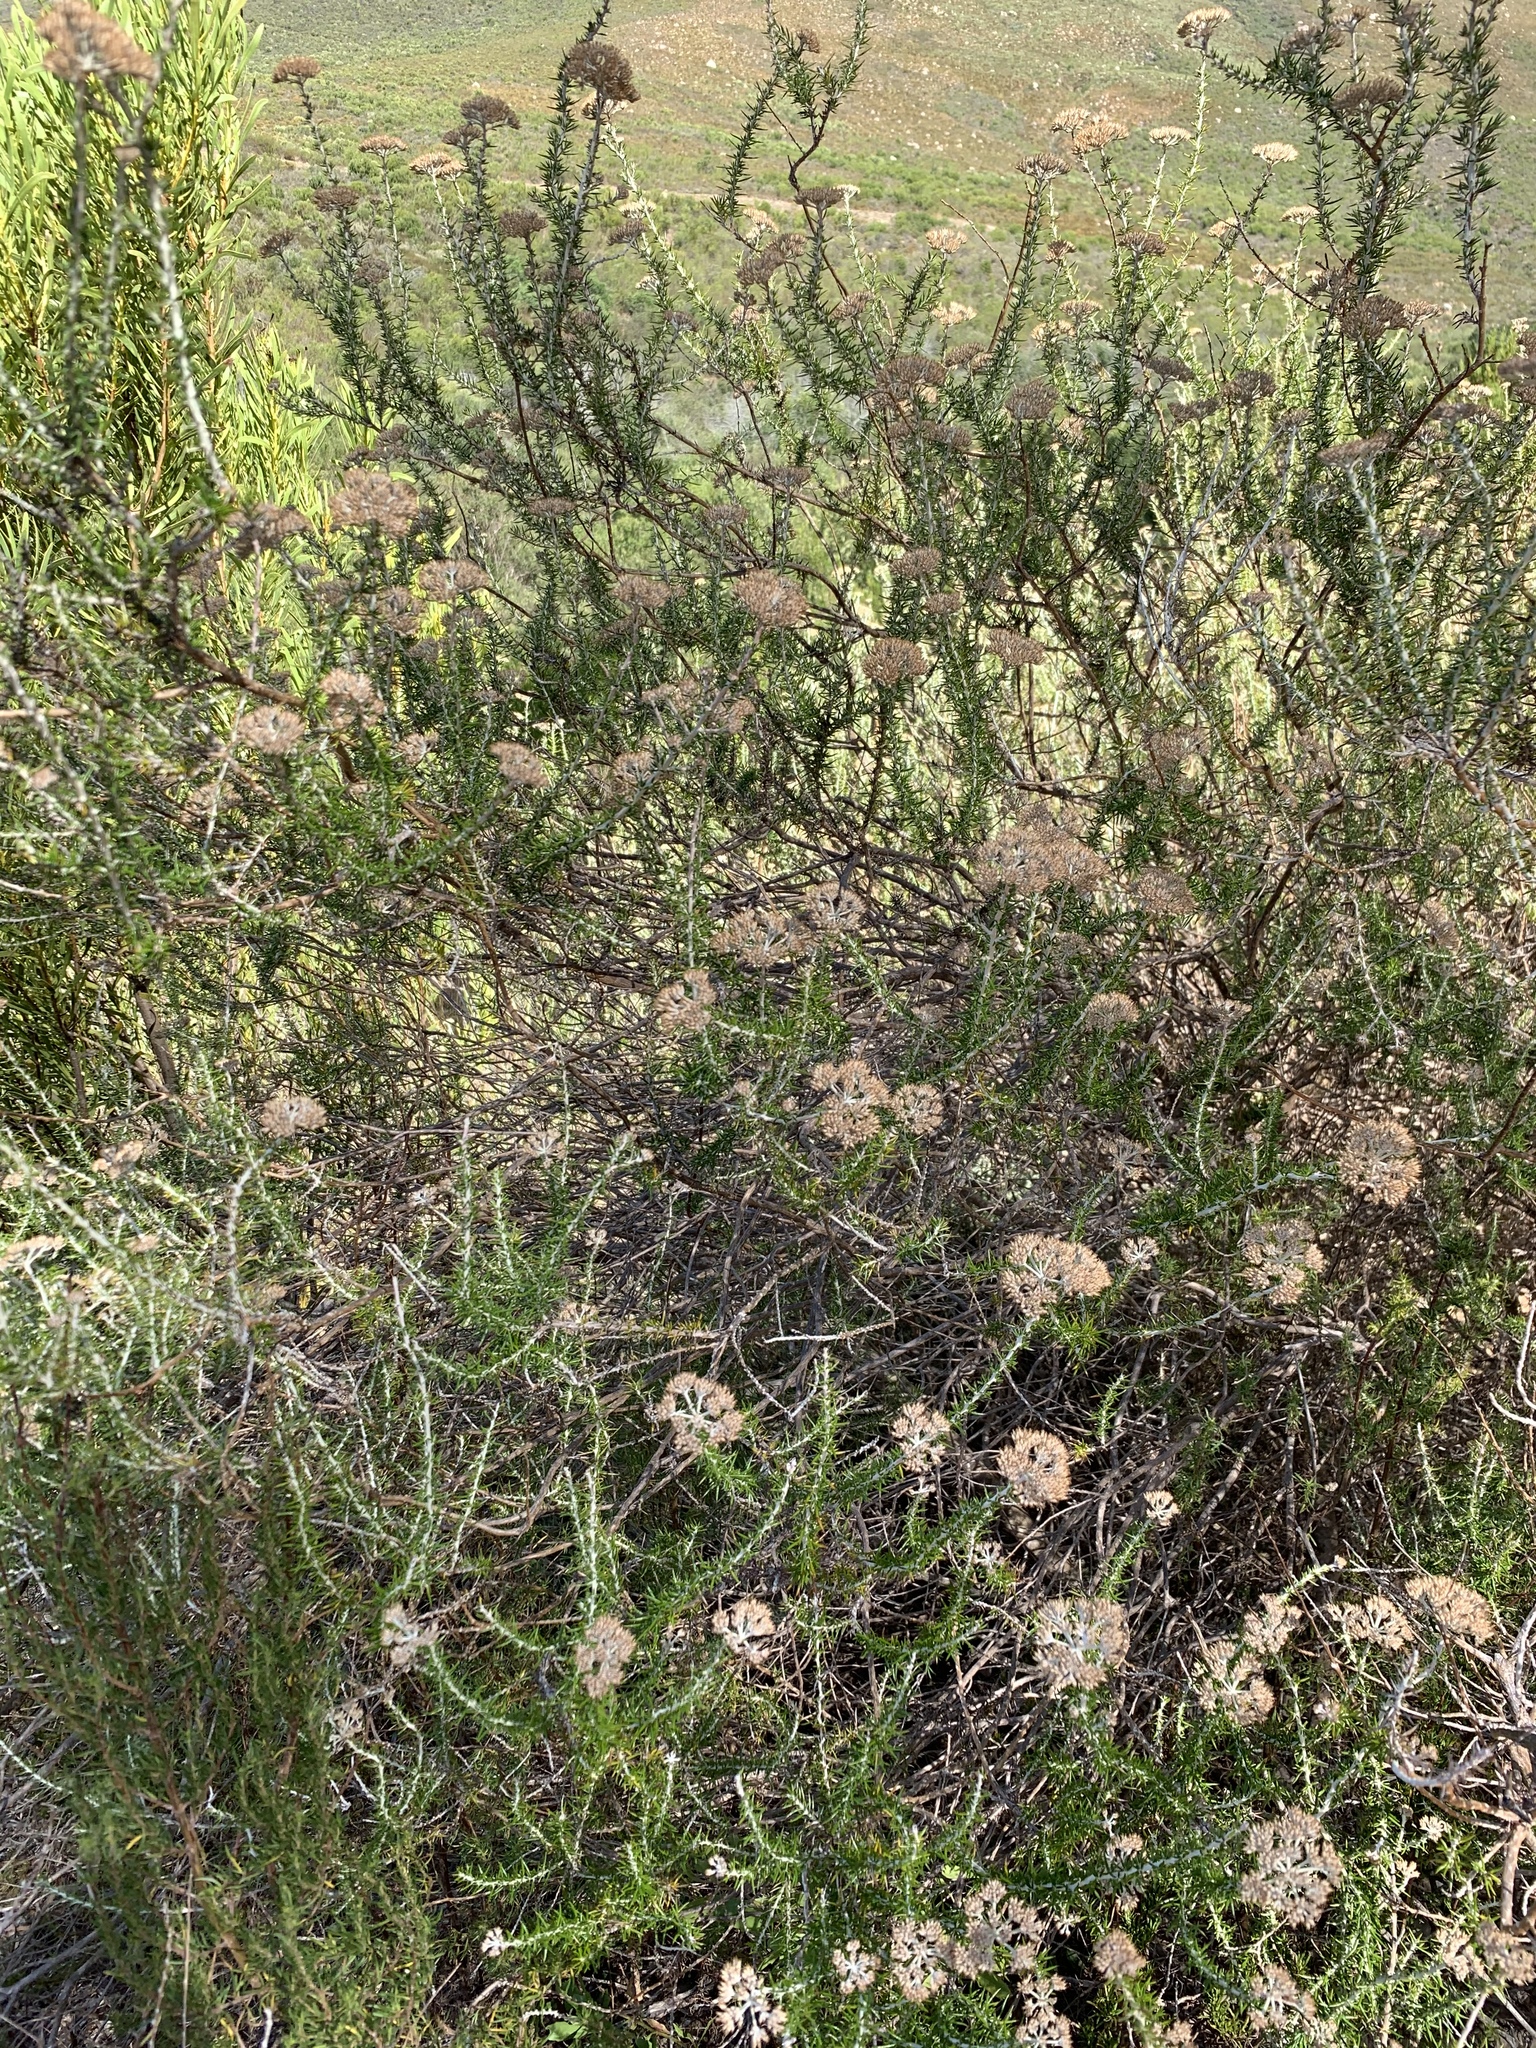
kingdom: Plantae
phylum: Tracheophyta
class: Magnoliopsida
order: Asterales
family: Asteraceae
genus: Metalasia
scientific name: Metalasia dregeana
